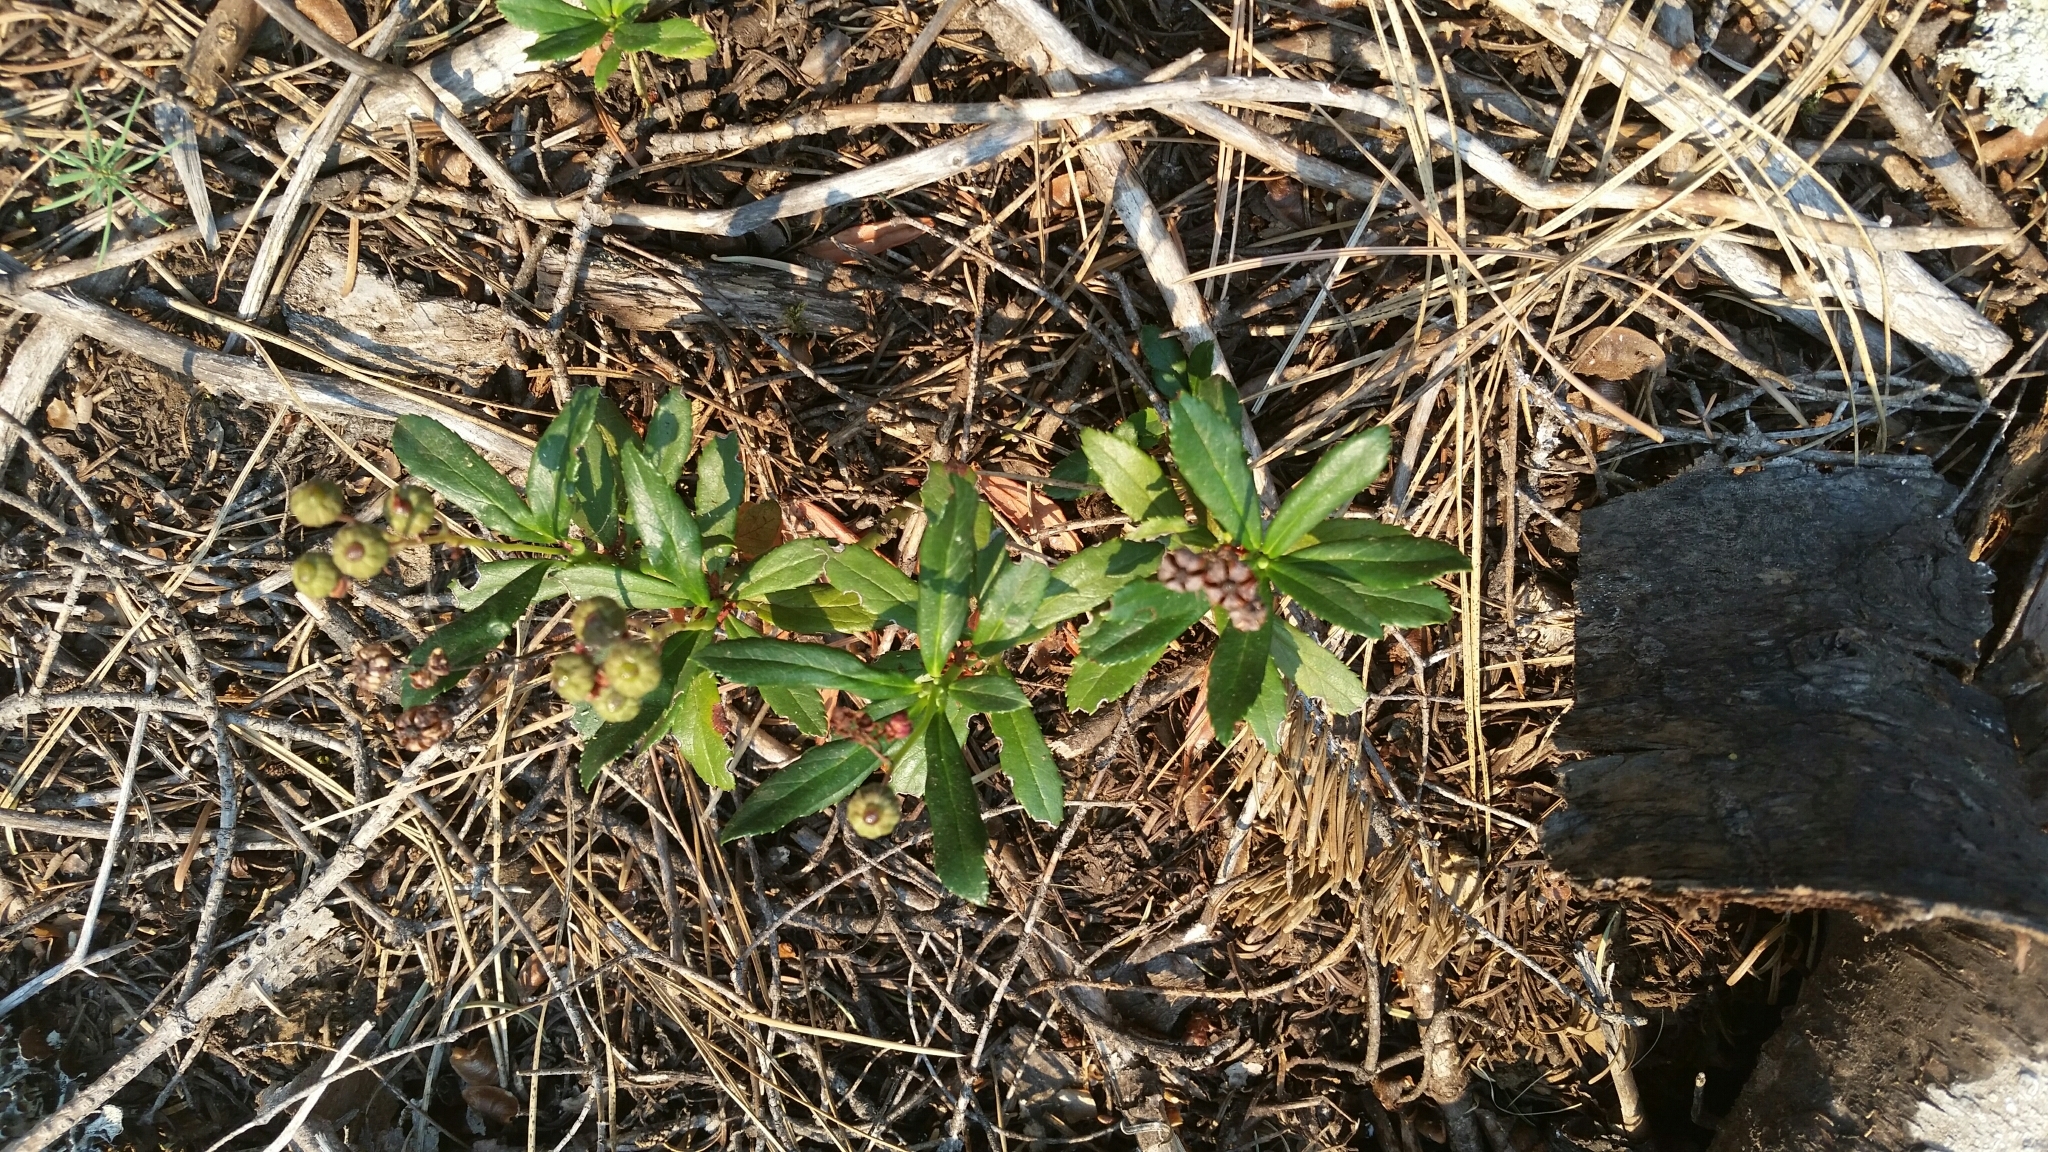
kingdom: Plantae
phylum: Tracheophyta
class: Magnoliopsida
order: Ericales
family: Ericaceae
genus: Chimaphila
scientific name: Chimaphila umbellata
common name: Pipsissewa
